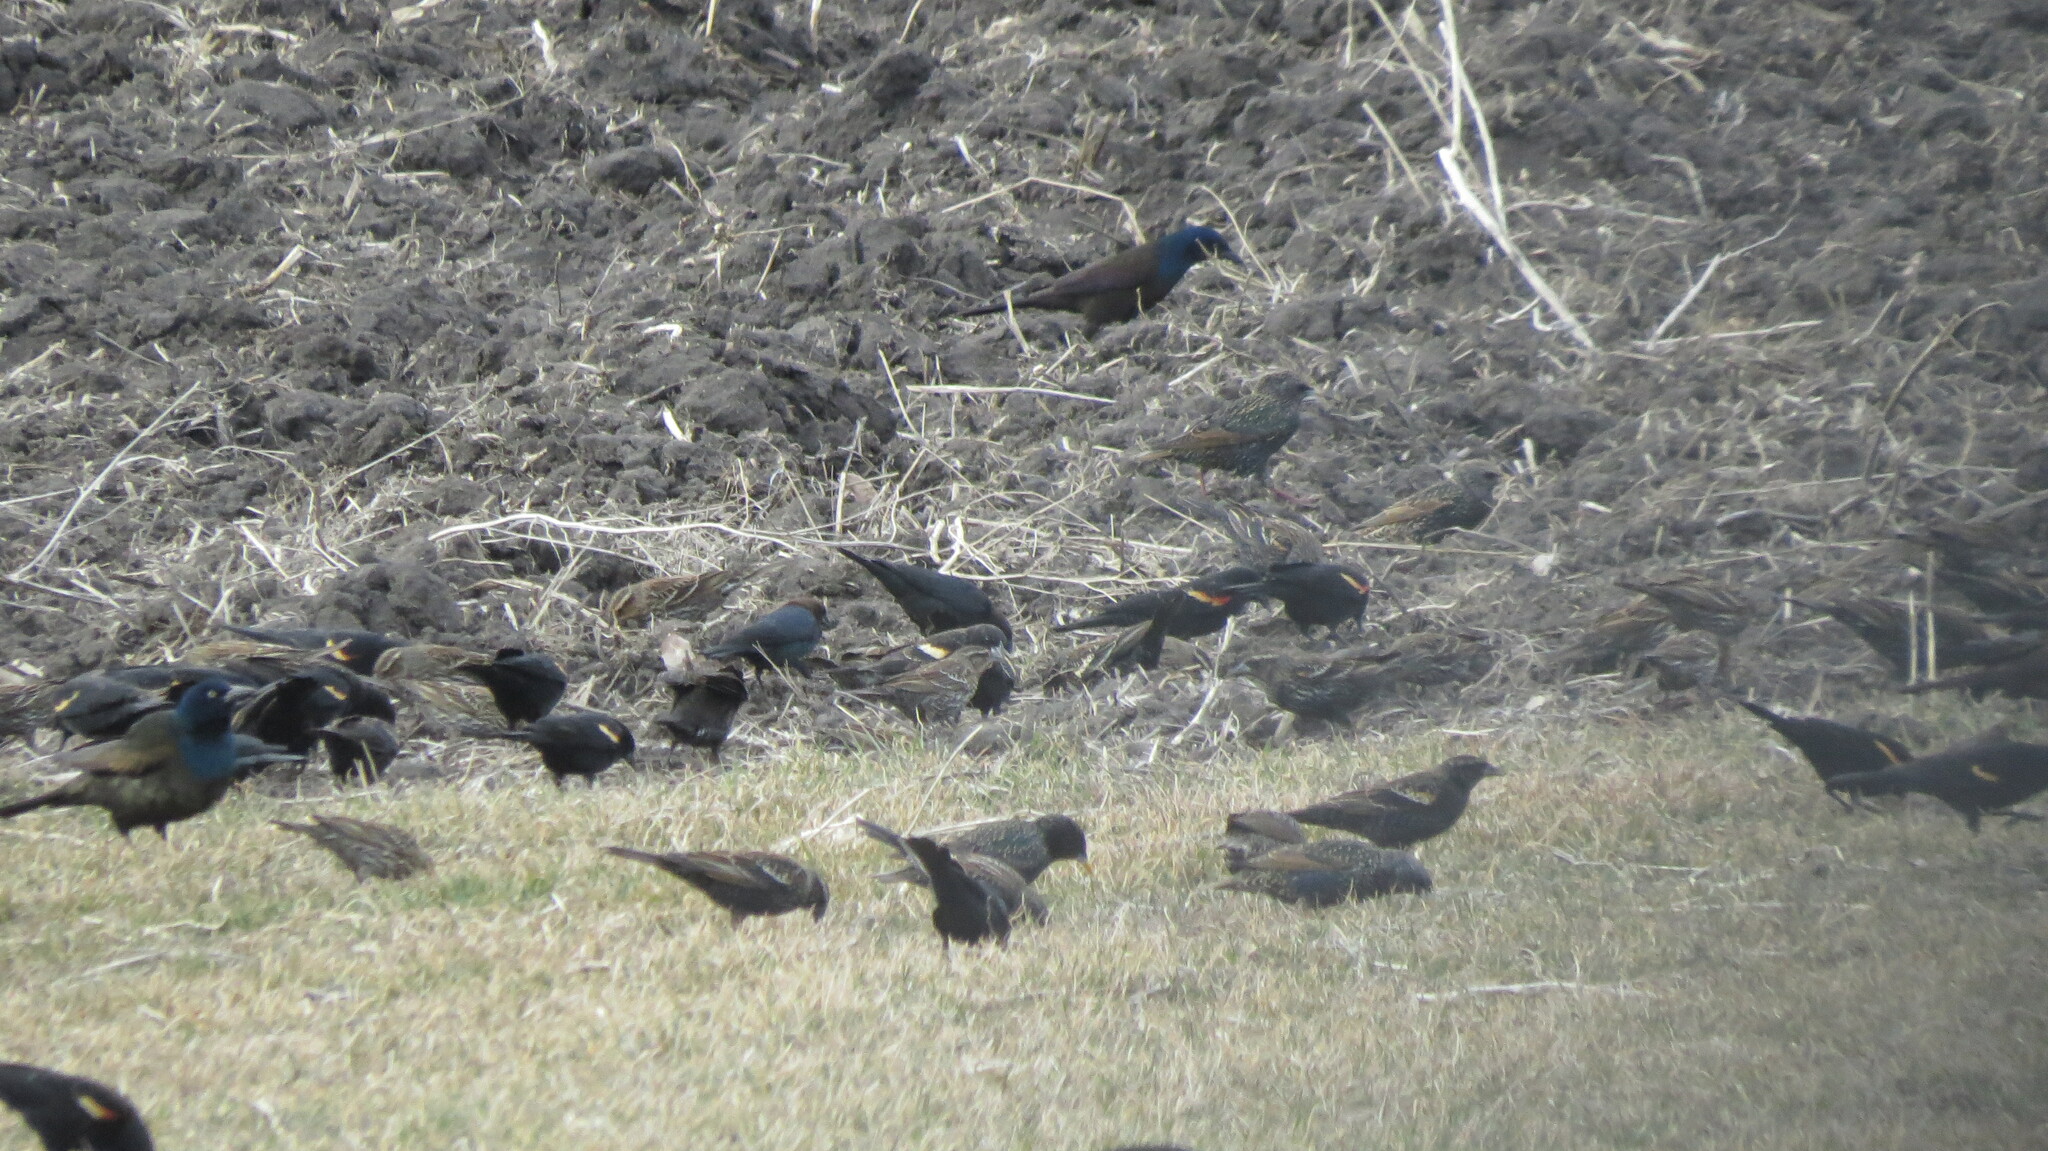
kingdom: Animalia
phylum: Chordata
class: Aves
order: Passeriformes
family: Icteridae
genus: Agelaius
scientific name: Agelaius phoeniceus
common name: Red-winged blackbird
